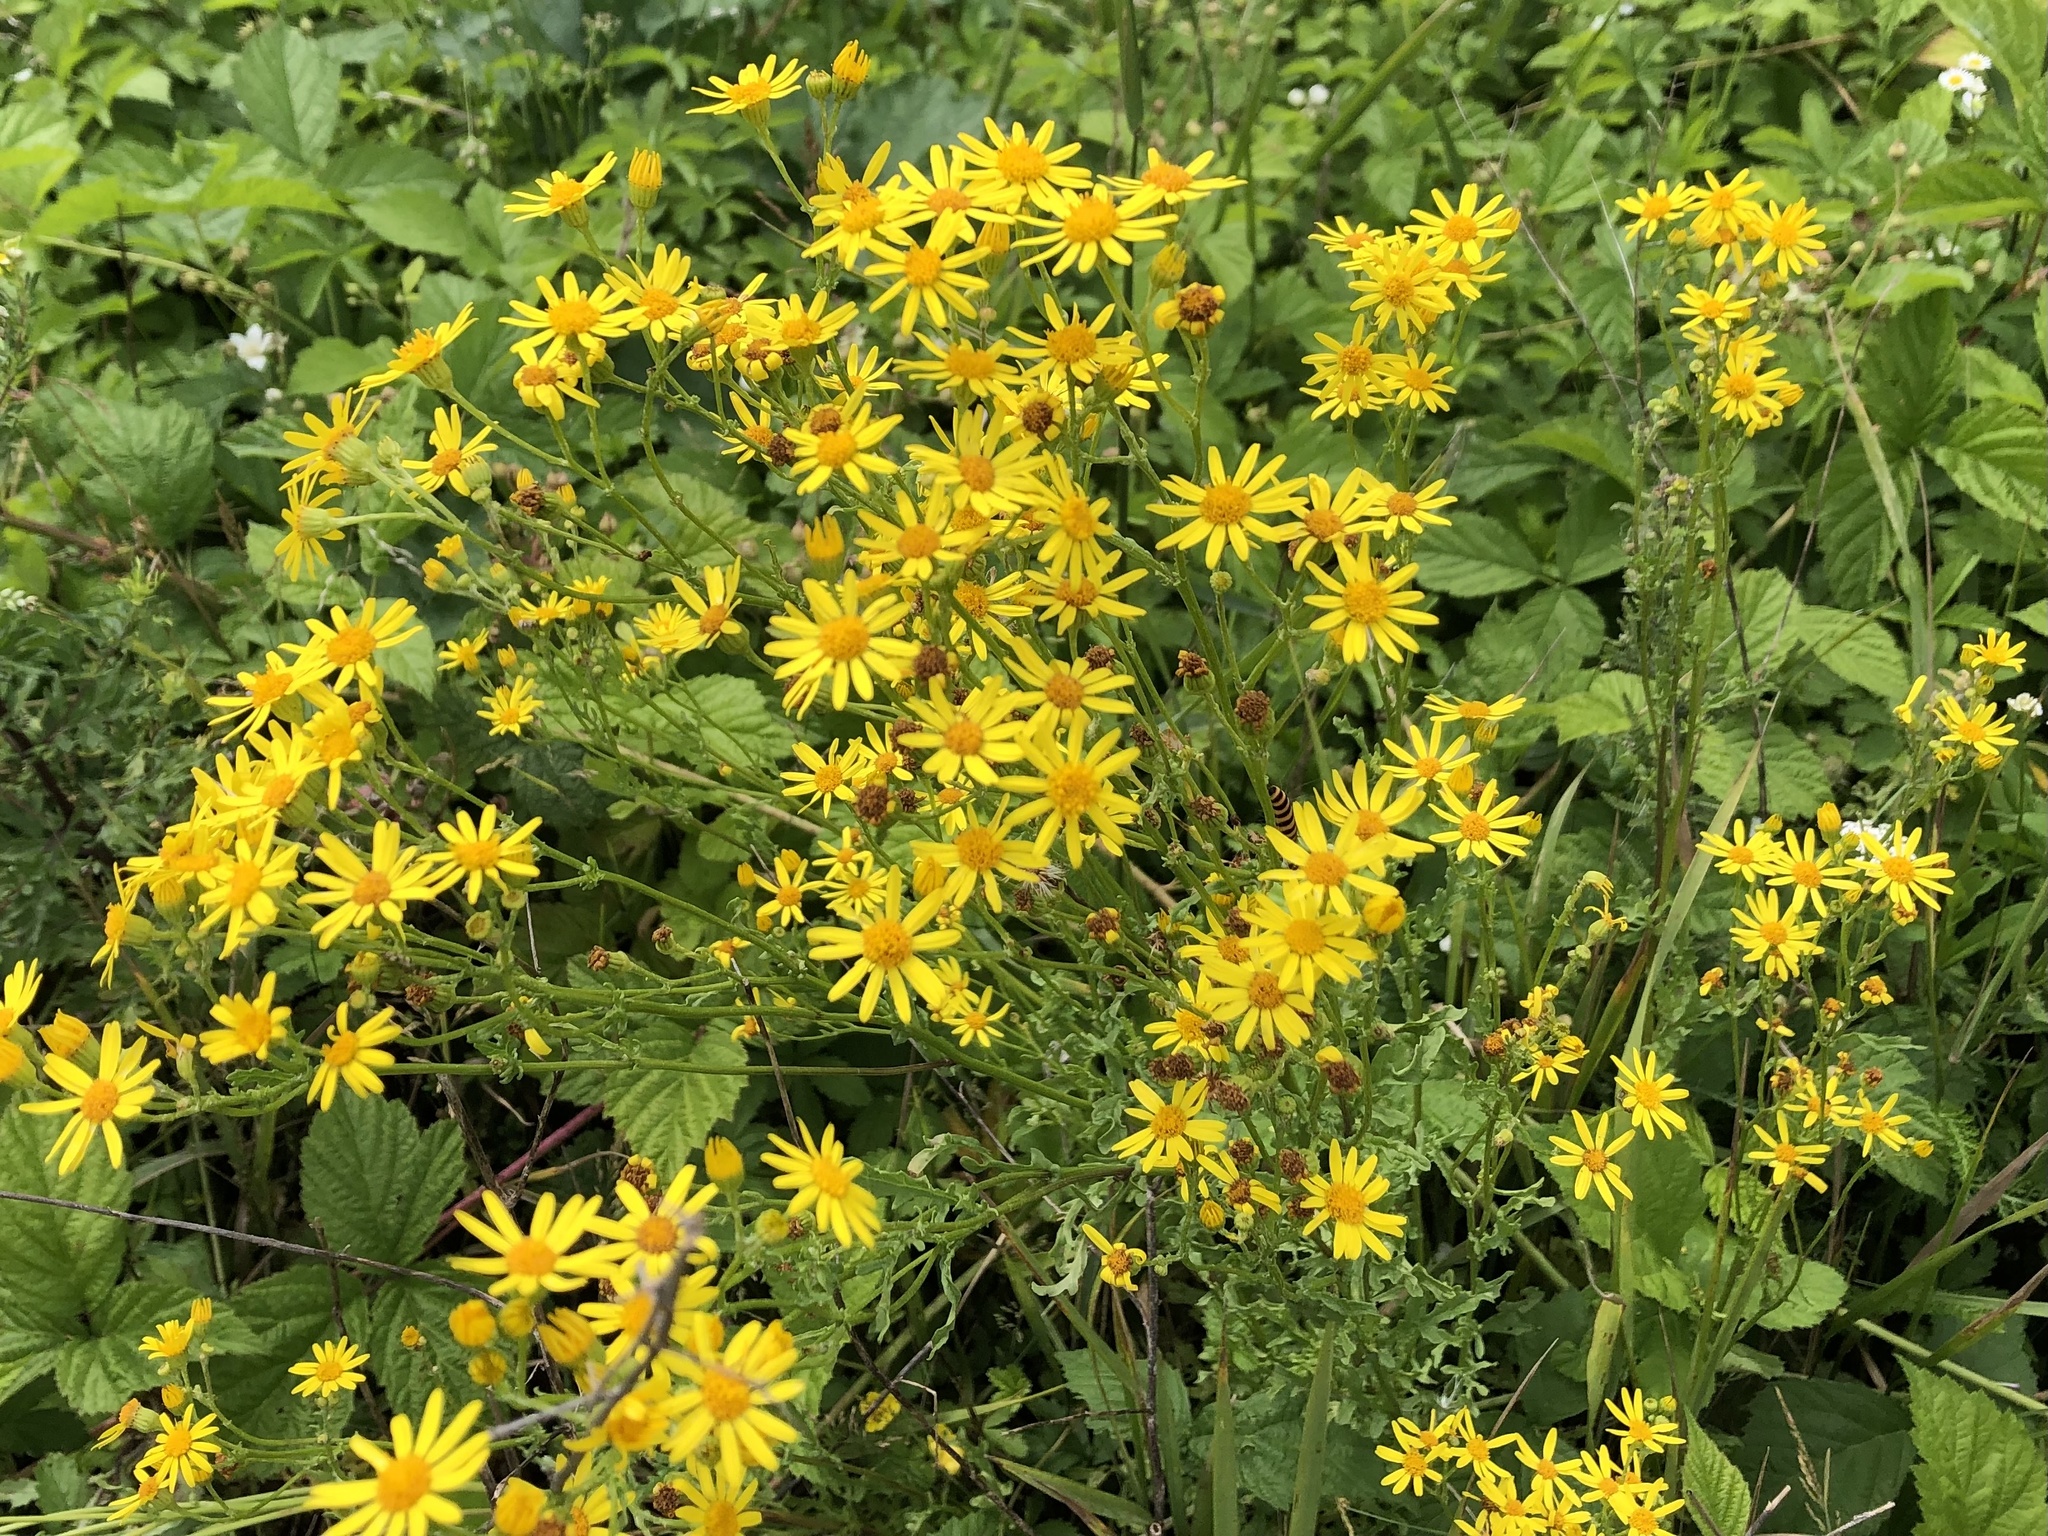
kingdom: Plantae
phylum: Tracheophyta
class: Magnoliopsida
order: Asterales
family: Asteraceae
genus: Jacobaea
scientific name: Jacobaea vulgaris
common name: Stinking willie
